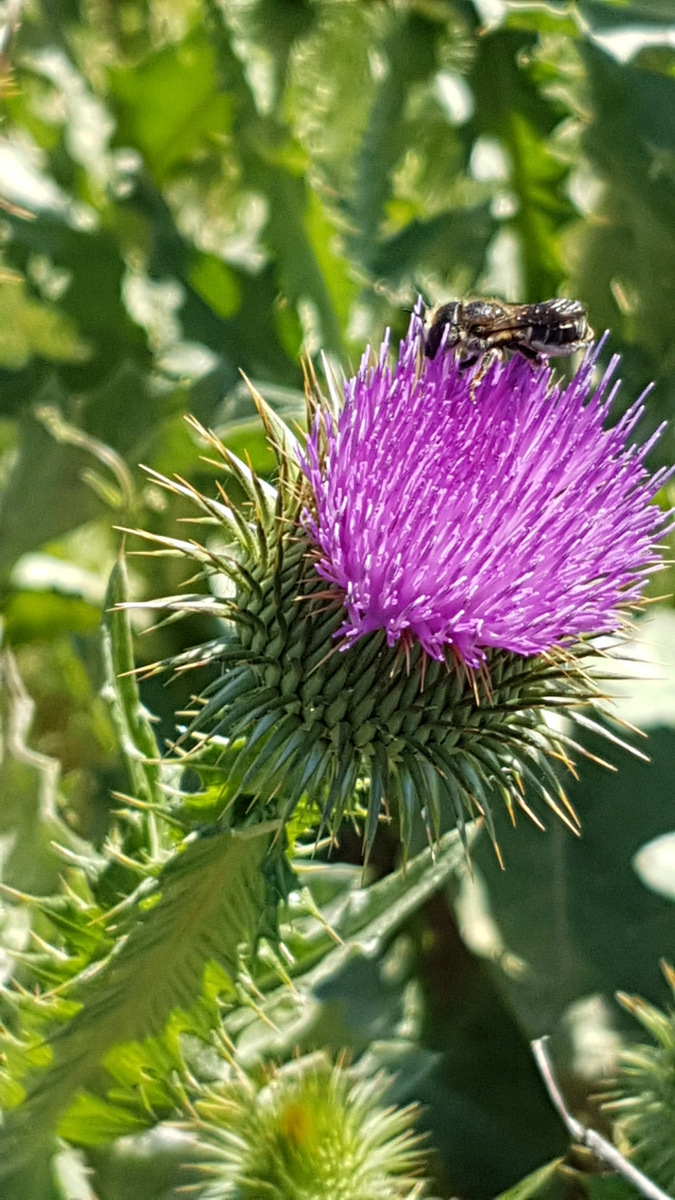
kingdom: Plantae
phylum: Tracheophyta
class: Magnoliopsida
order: Asterales
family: Asteraceae
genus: Onopordum
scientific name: Onopordum acanthium
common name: Scotch thistle
